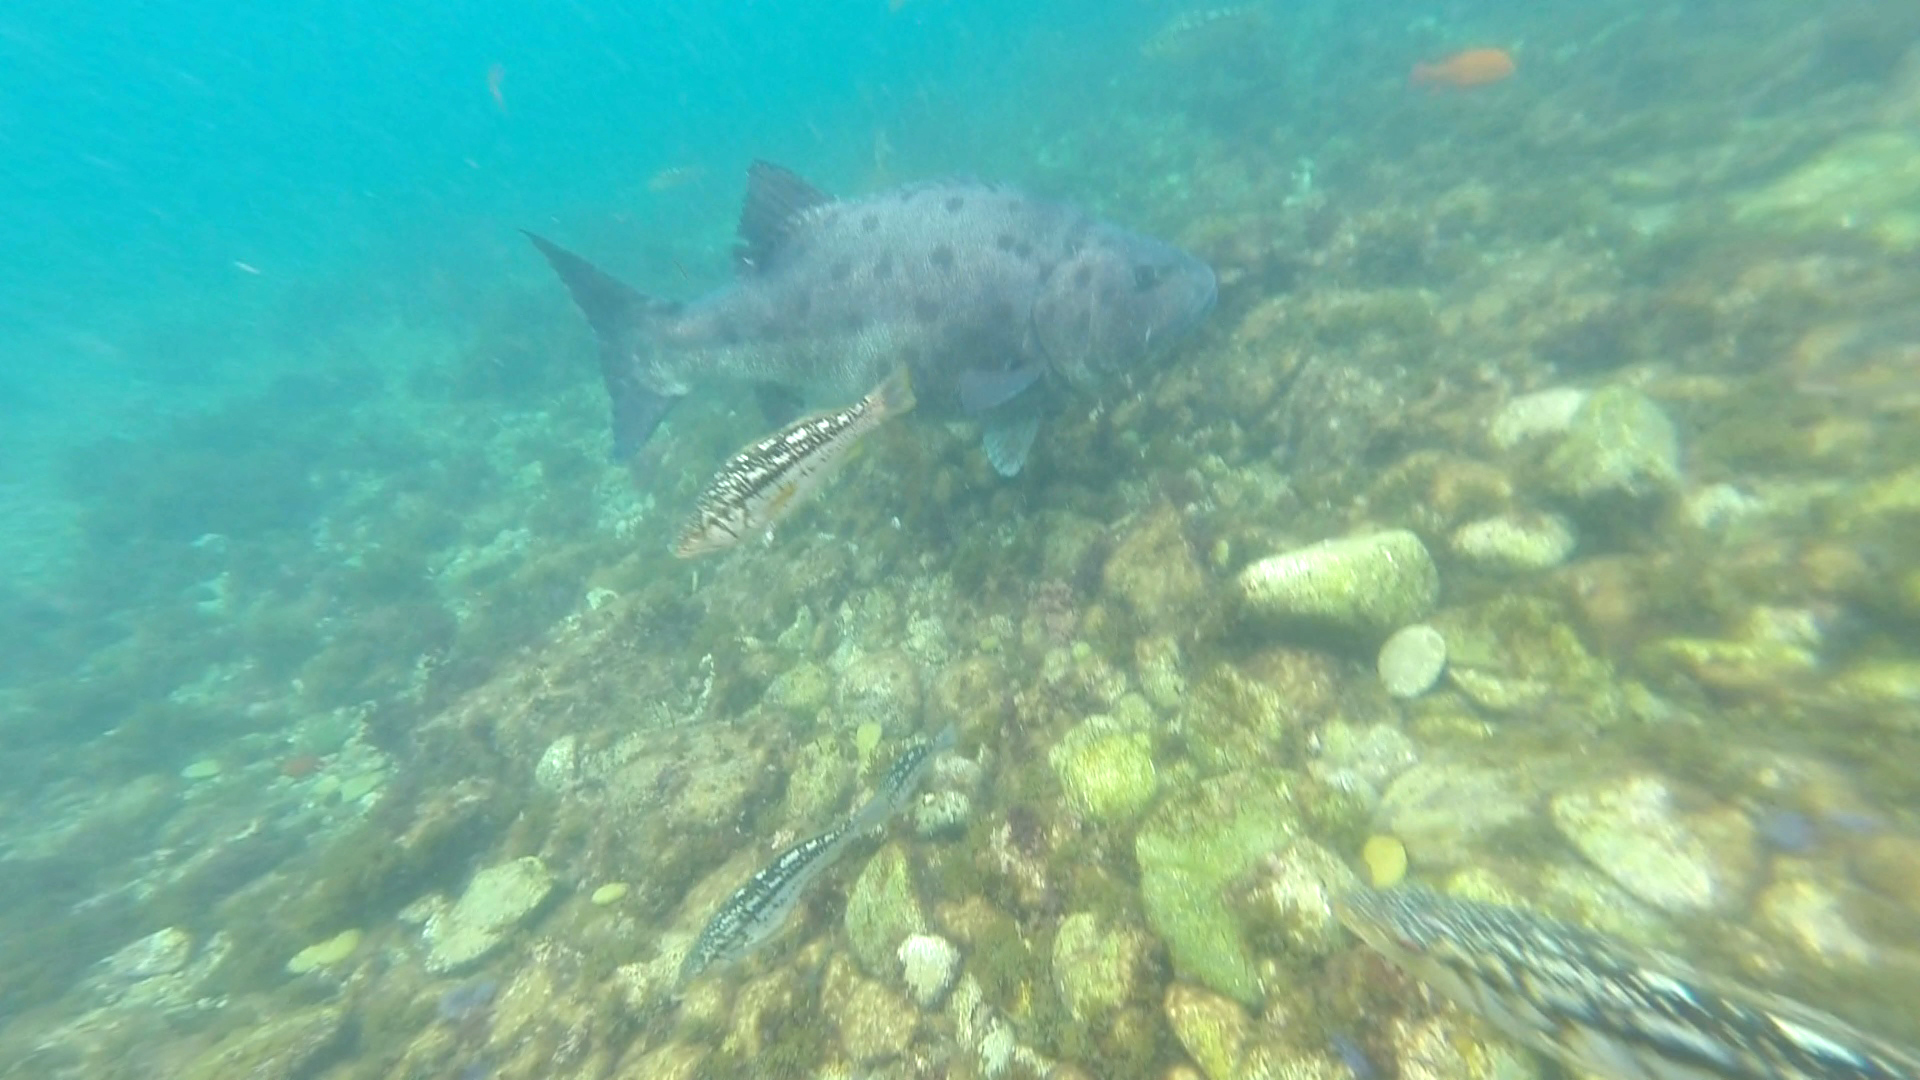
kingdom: Animalia
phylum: Chordata
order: Perciformes
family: Polyprionidae
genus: Stereolepis
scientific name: Stereolepis gigas
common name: Giant sea bass
